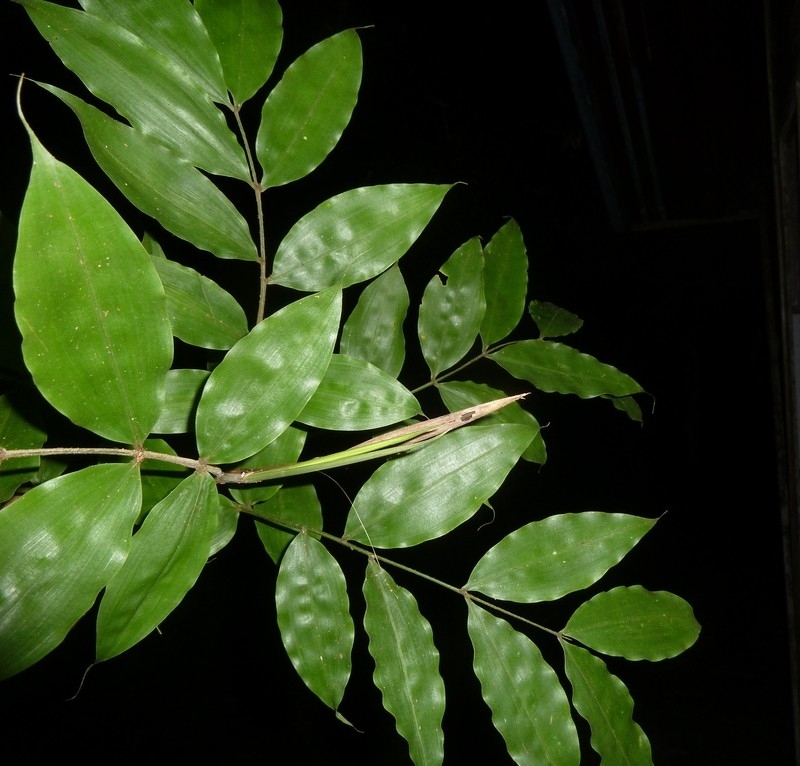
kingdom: Plantae
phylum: Tracheophyta
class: Liliopsida
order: Arecales
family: Arecaceae
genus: Desmoncus
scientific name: Desmoncus stans
